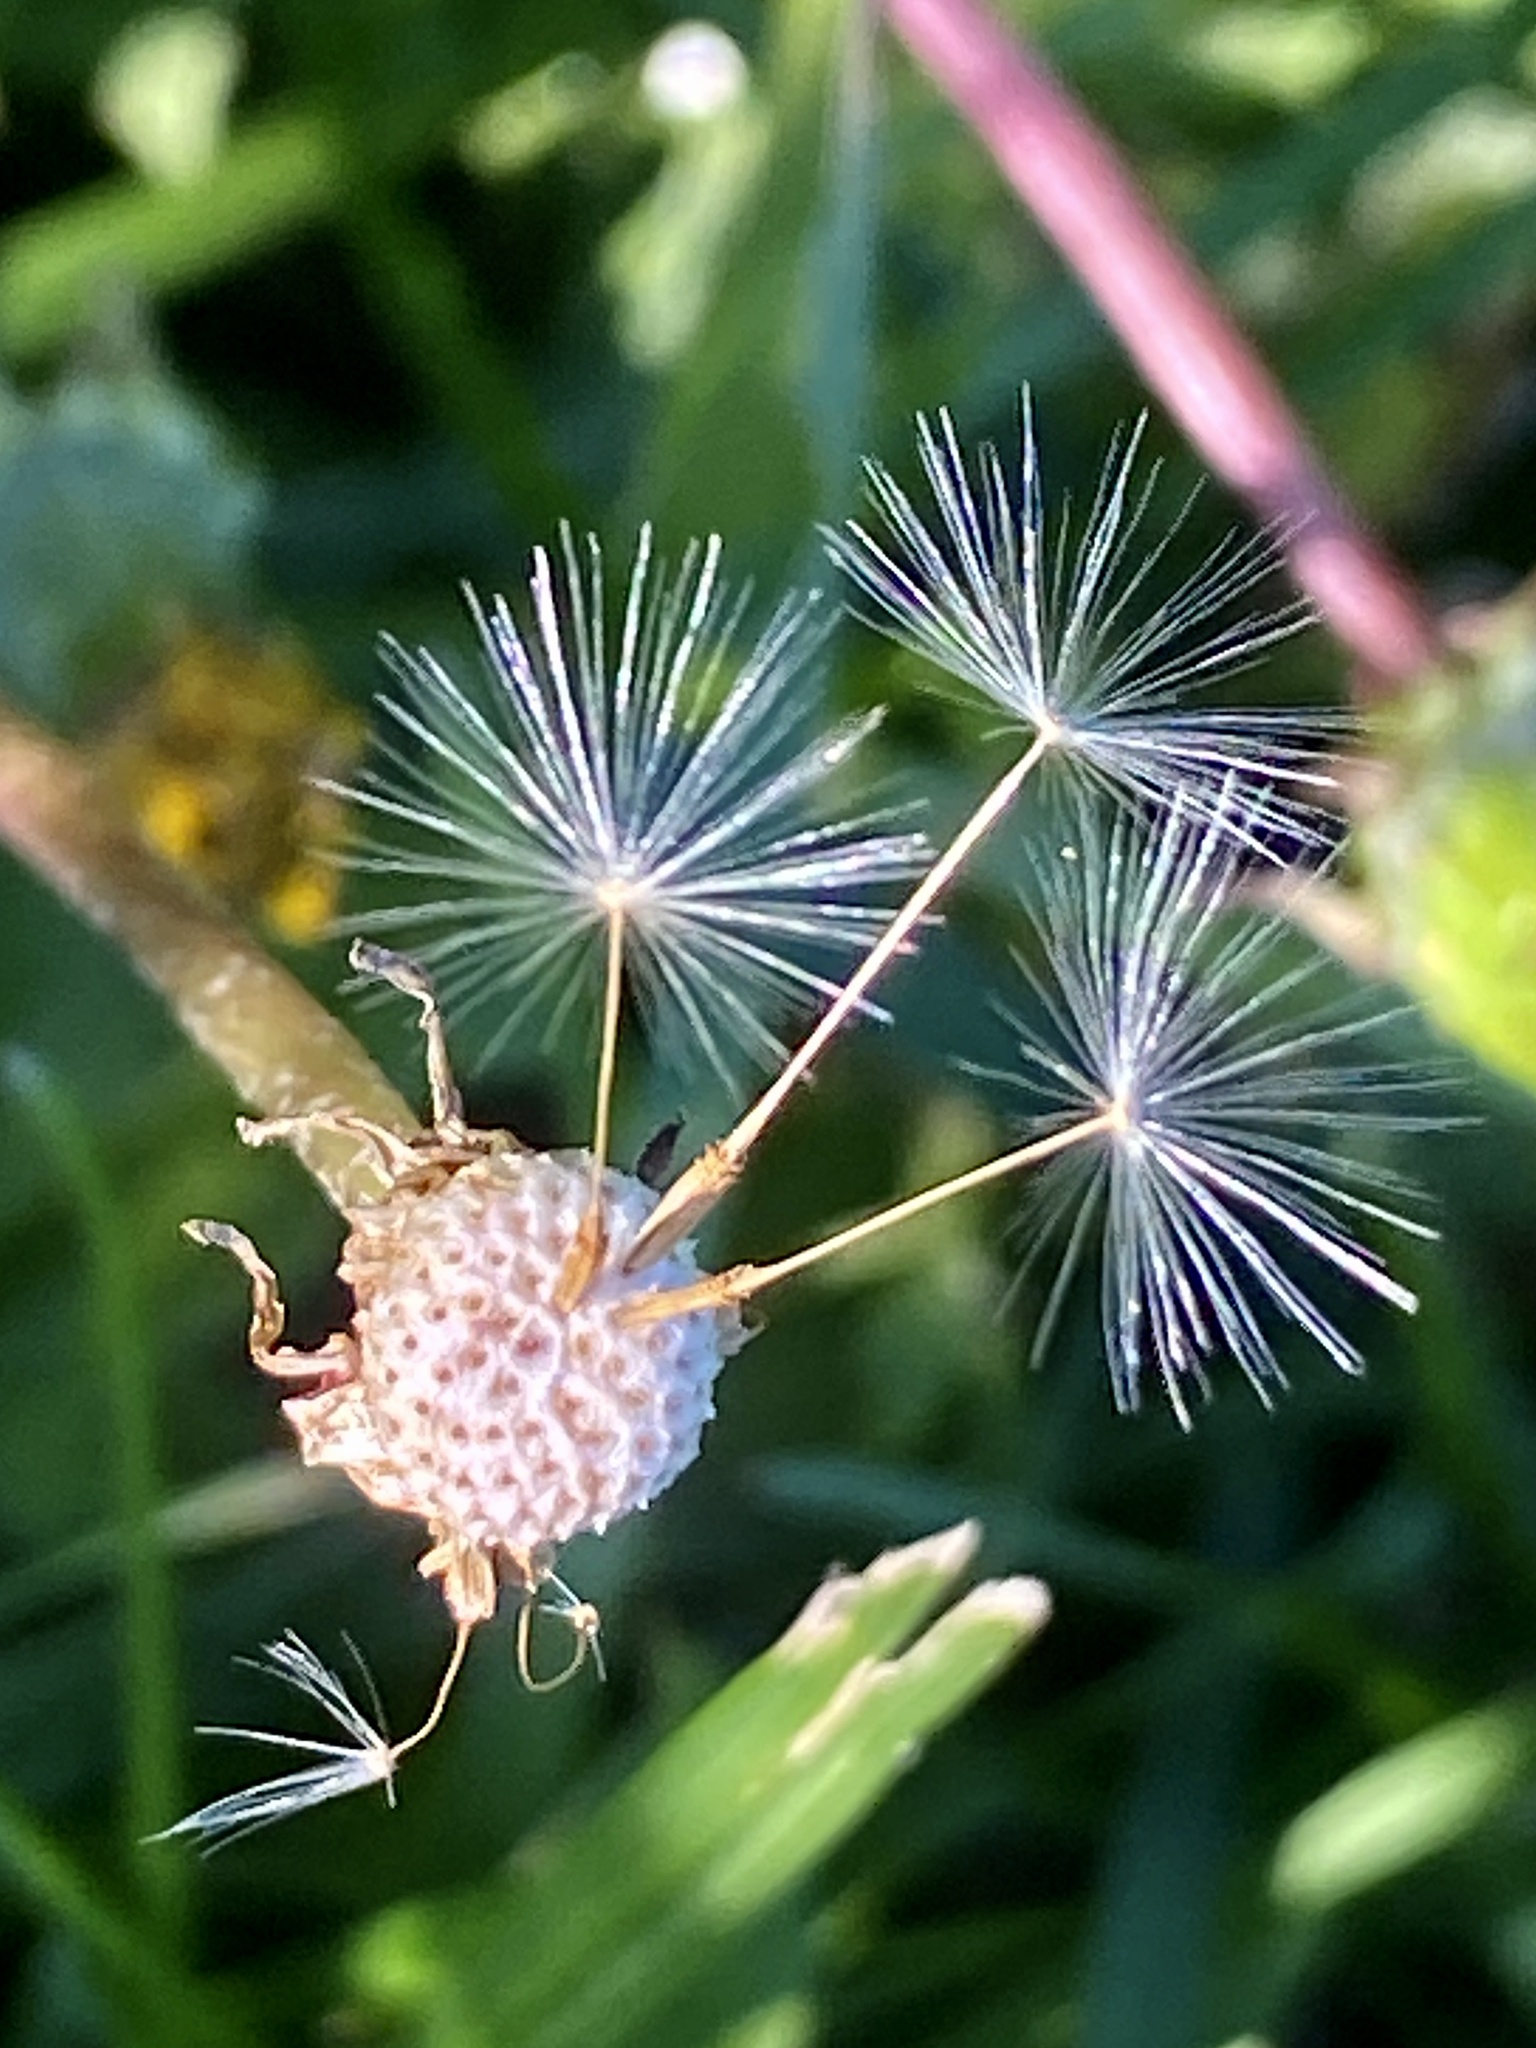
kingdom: Plantae
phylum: Tracheophyta
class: Magnoliopsida
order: Asterales
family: Asteraceae
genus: Taraxacum
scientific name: Taraxacum officinale
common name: Common dandelion
